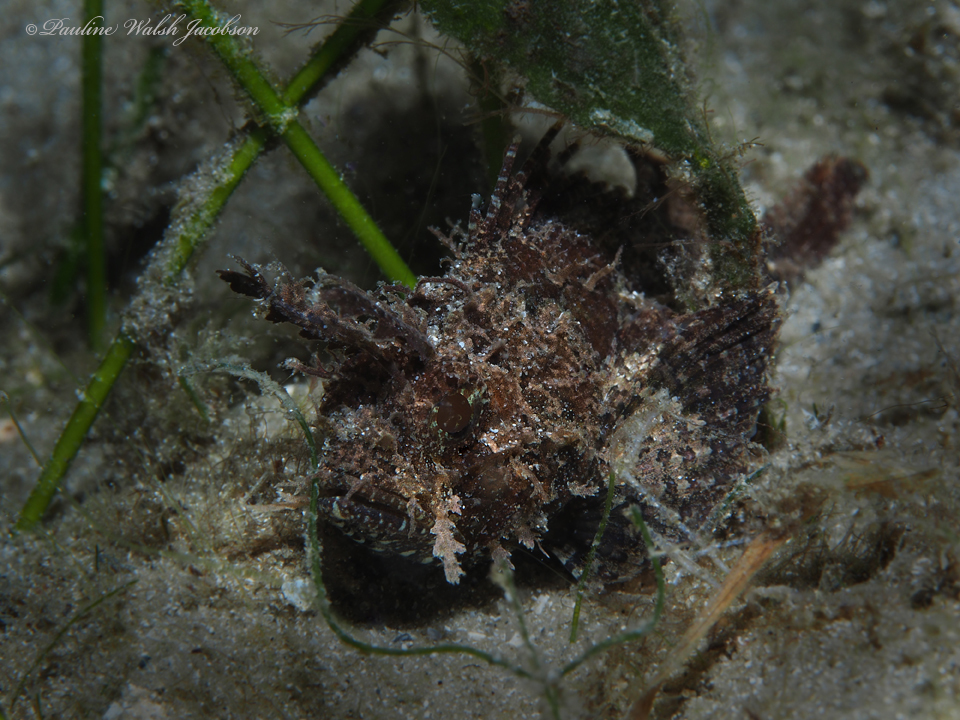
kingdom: Animalia
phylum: Chordata
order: Scorpaeniformes
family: Scorpaenidae
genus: Scorpaena
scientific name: Scorpaena grandicornis
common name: Plumed scorpionfish
